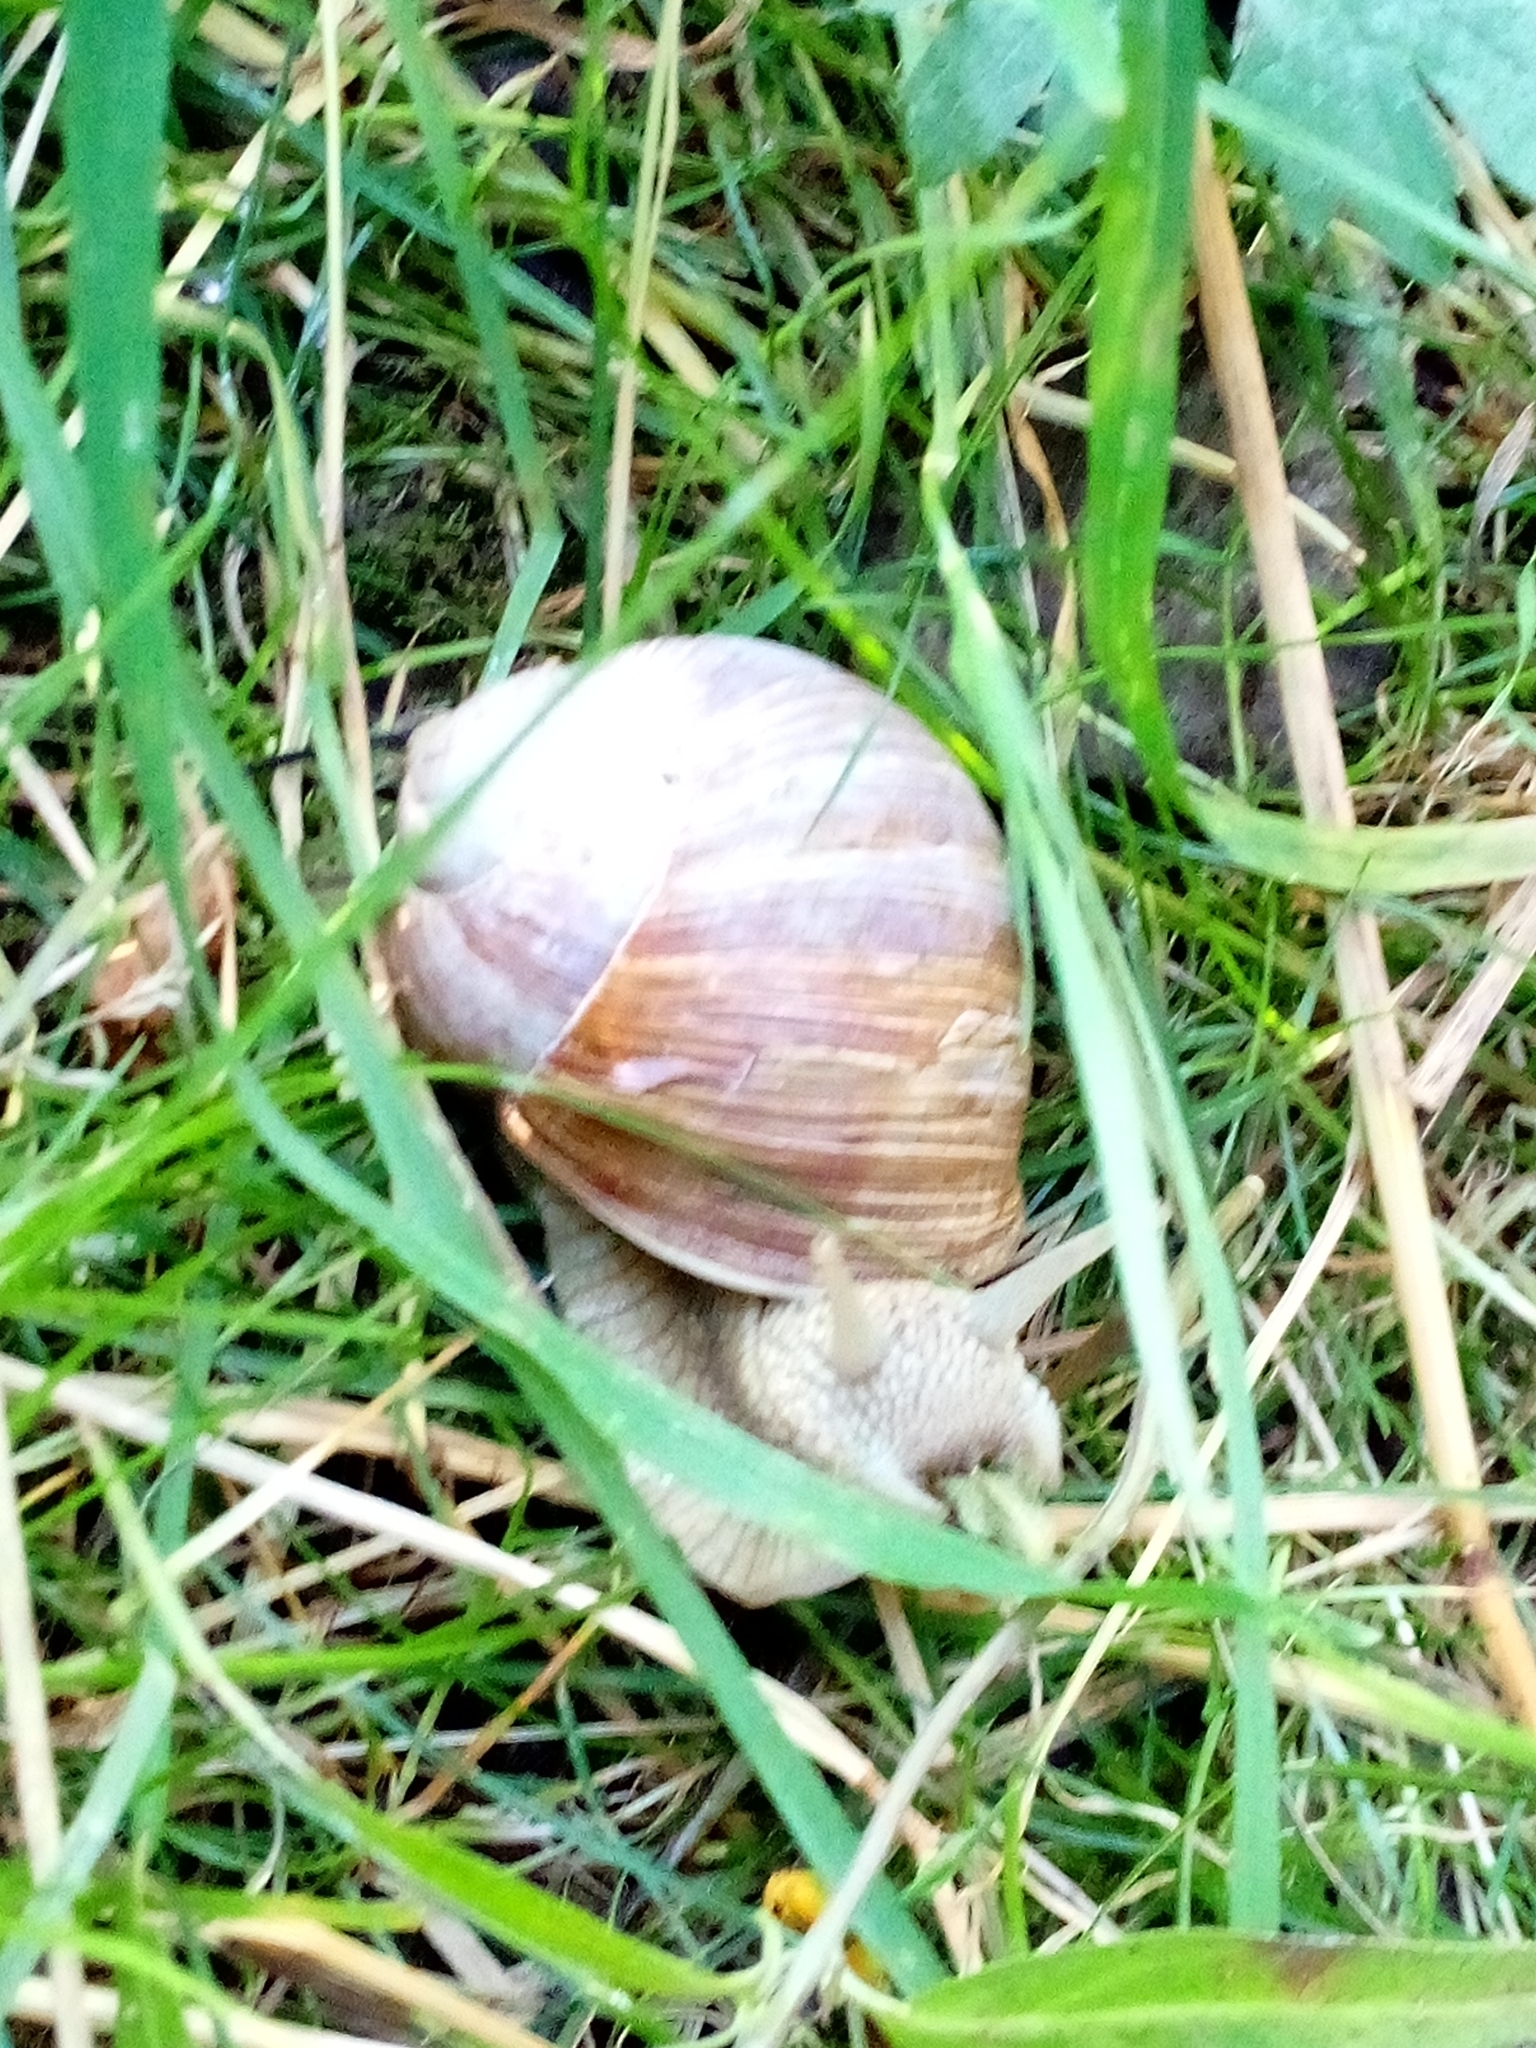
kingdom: Animalia
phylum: Mollusca
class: Gastropoda
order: Stylommatophora
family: Helicidae
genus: Helix
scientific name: Helix pomatia
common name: Roman snail
